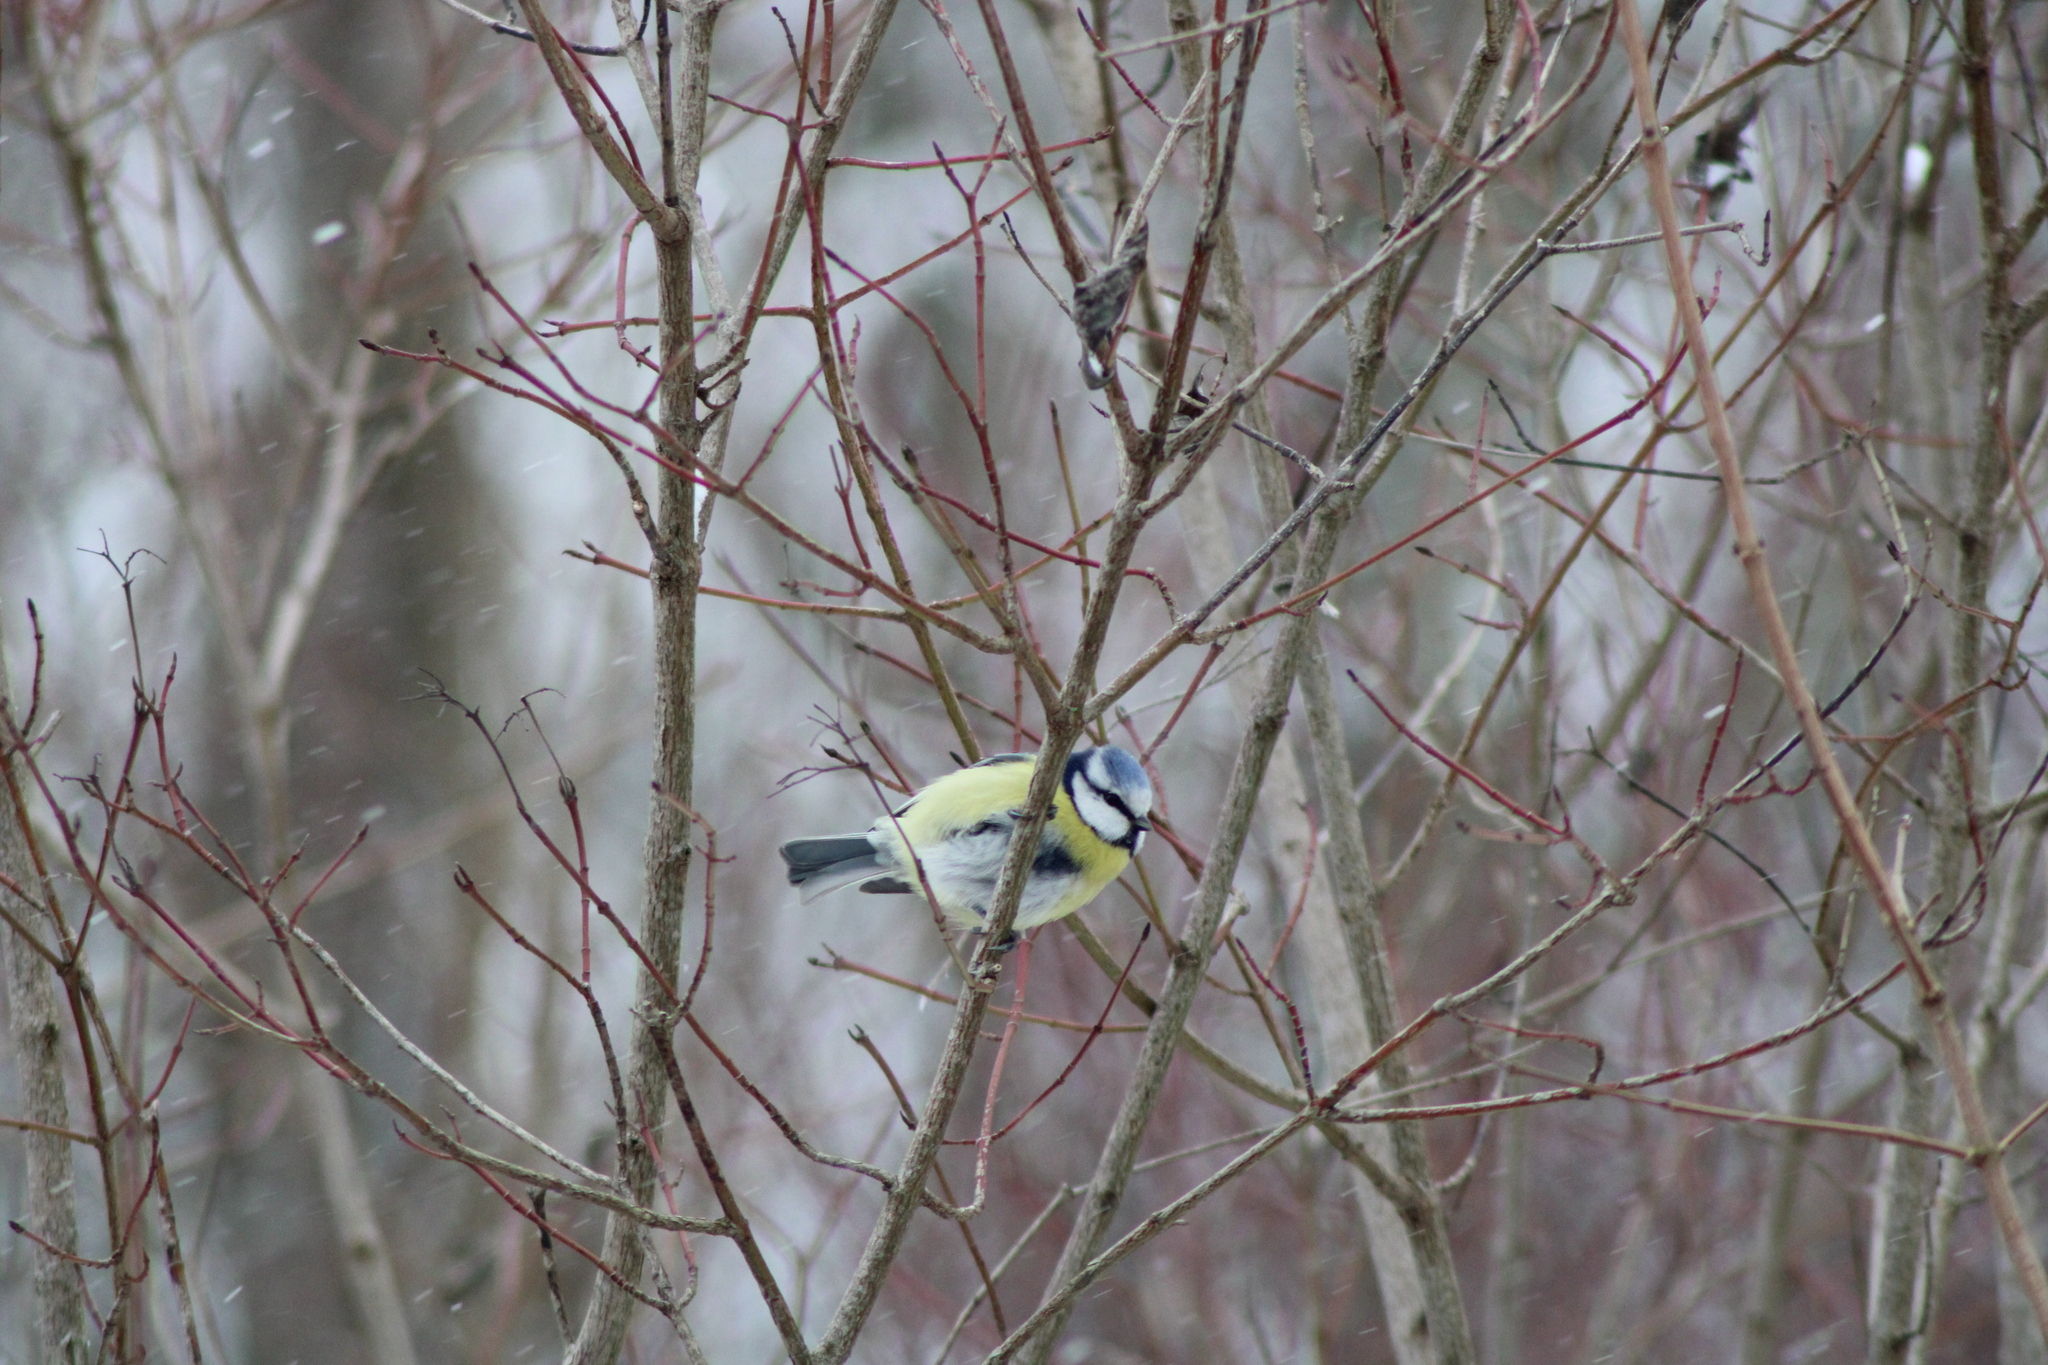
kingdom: Animalia
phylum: Chordata
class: Aves
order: Passeriformes
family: Paridae
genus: Cyanistes
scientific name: Cyanistes caeruleus
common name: Eurasian blue tit
